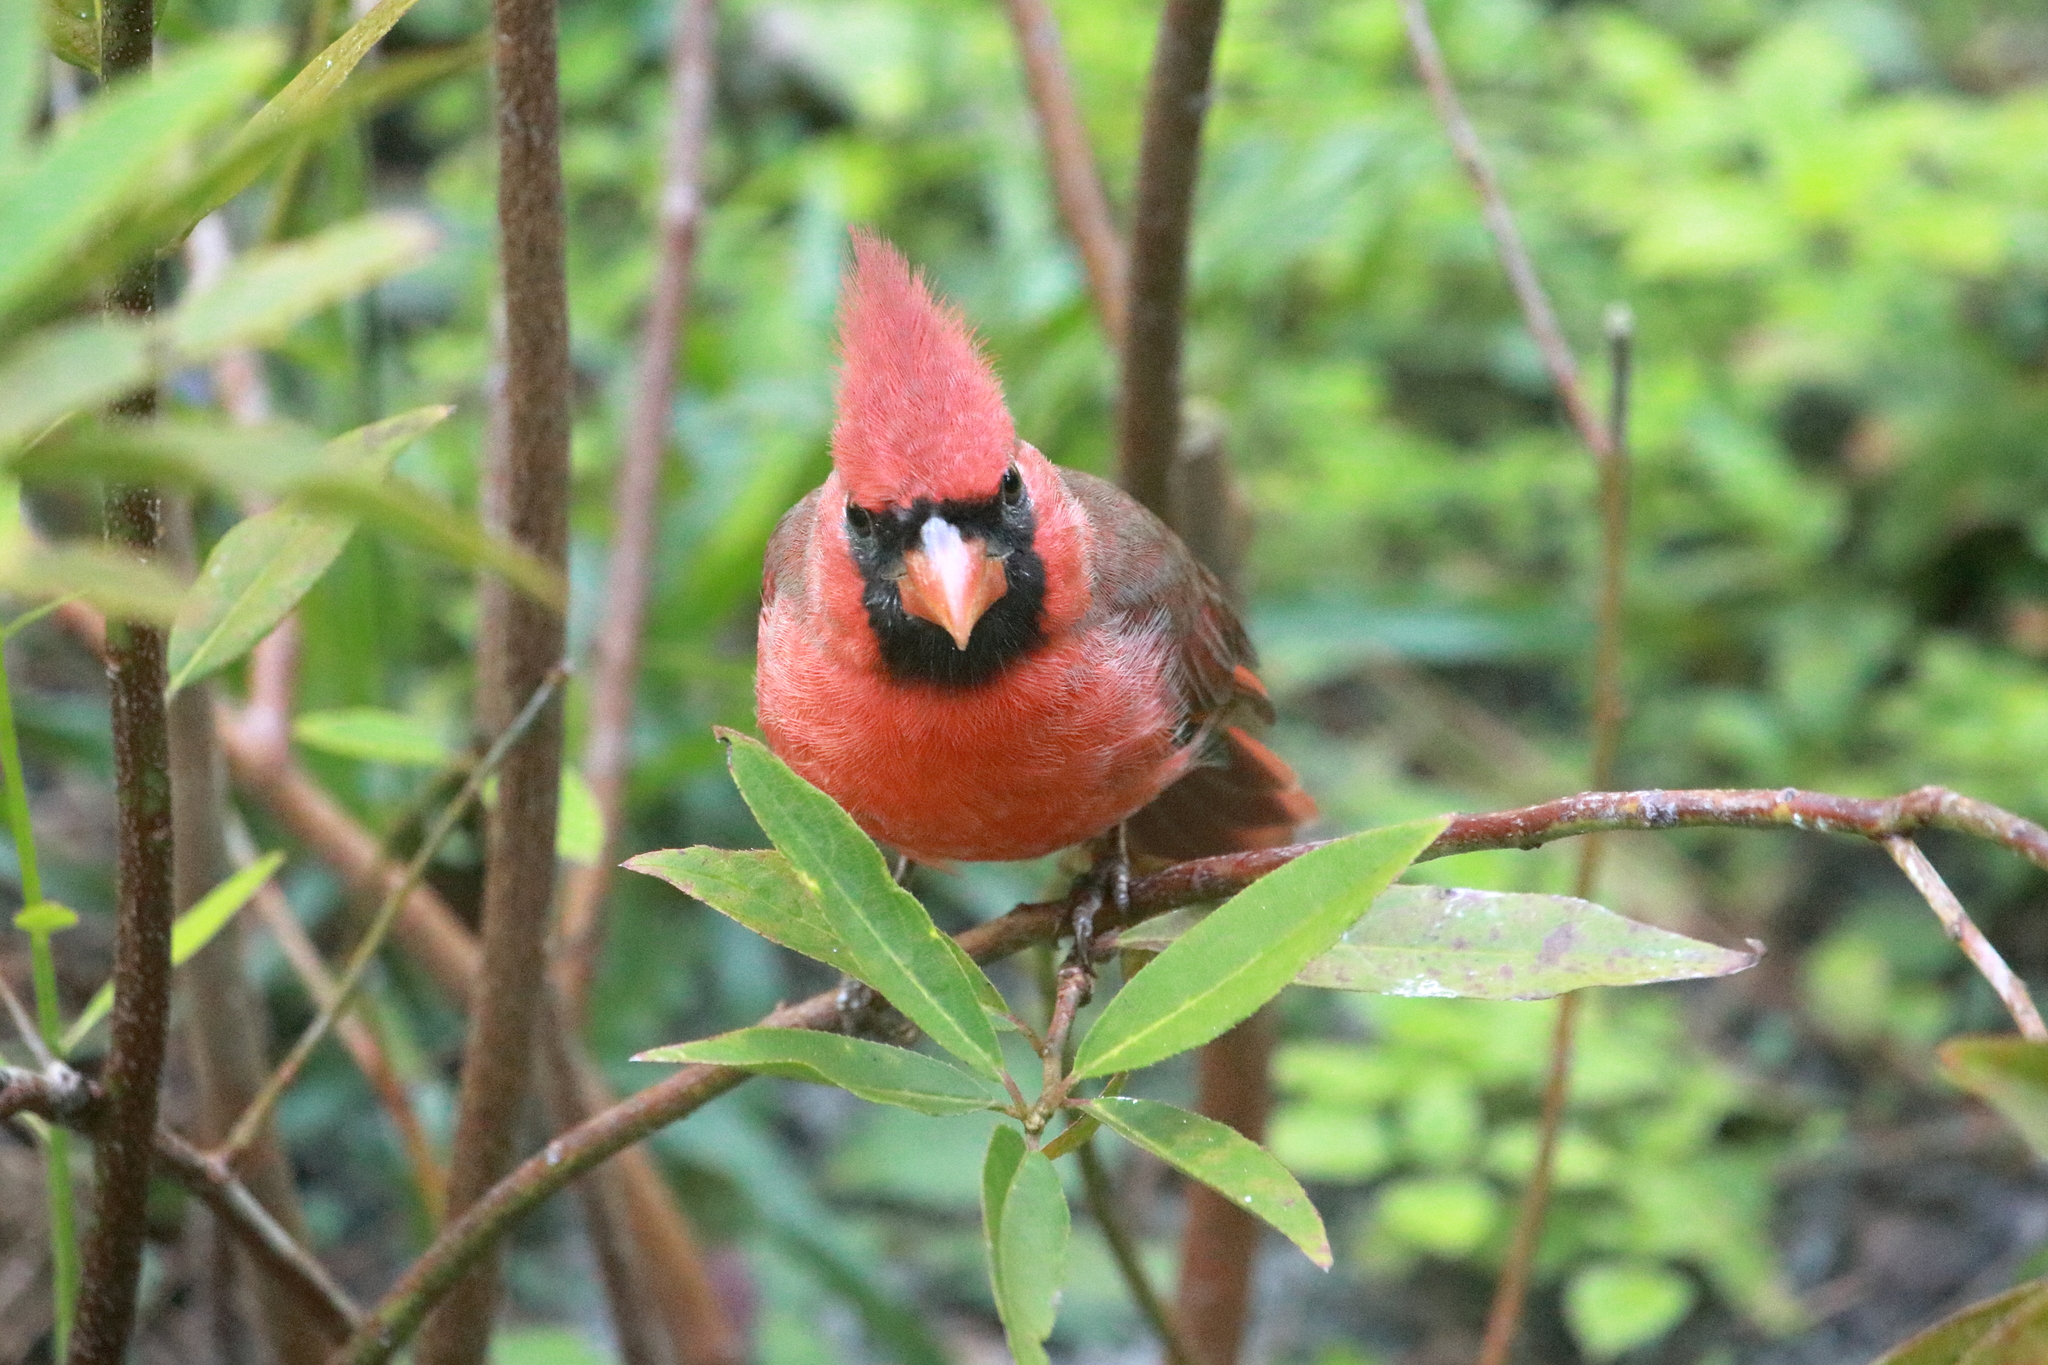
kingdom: Animalia
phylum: Chordata
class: Aves
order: Passeriformes
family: Cardinalidae
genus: Cardinalis
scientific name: Cardinalis cardinalis
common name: Northern cardinal
